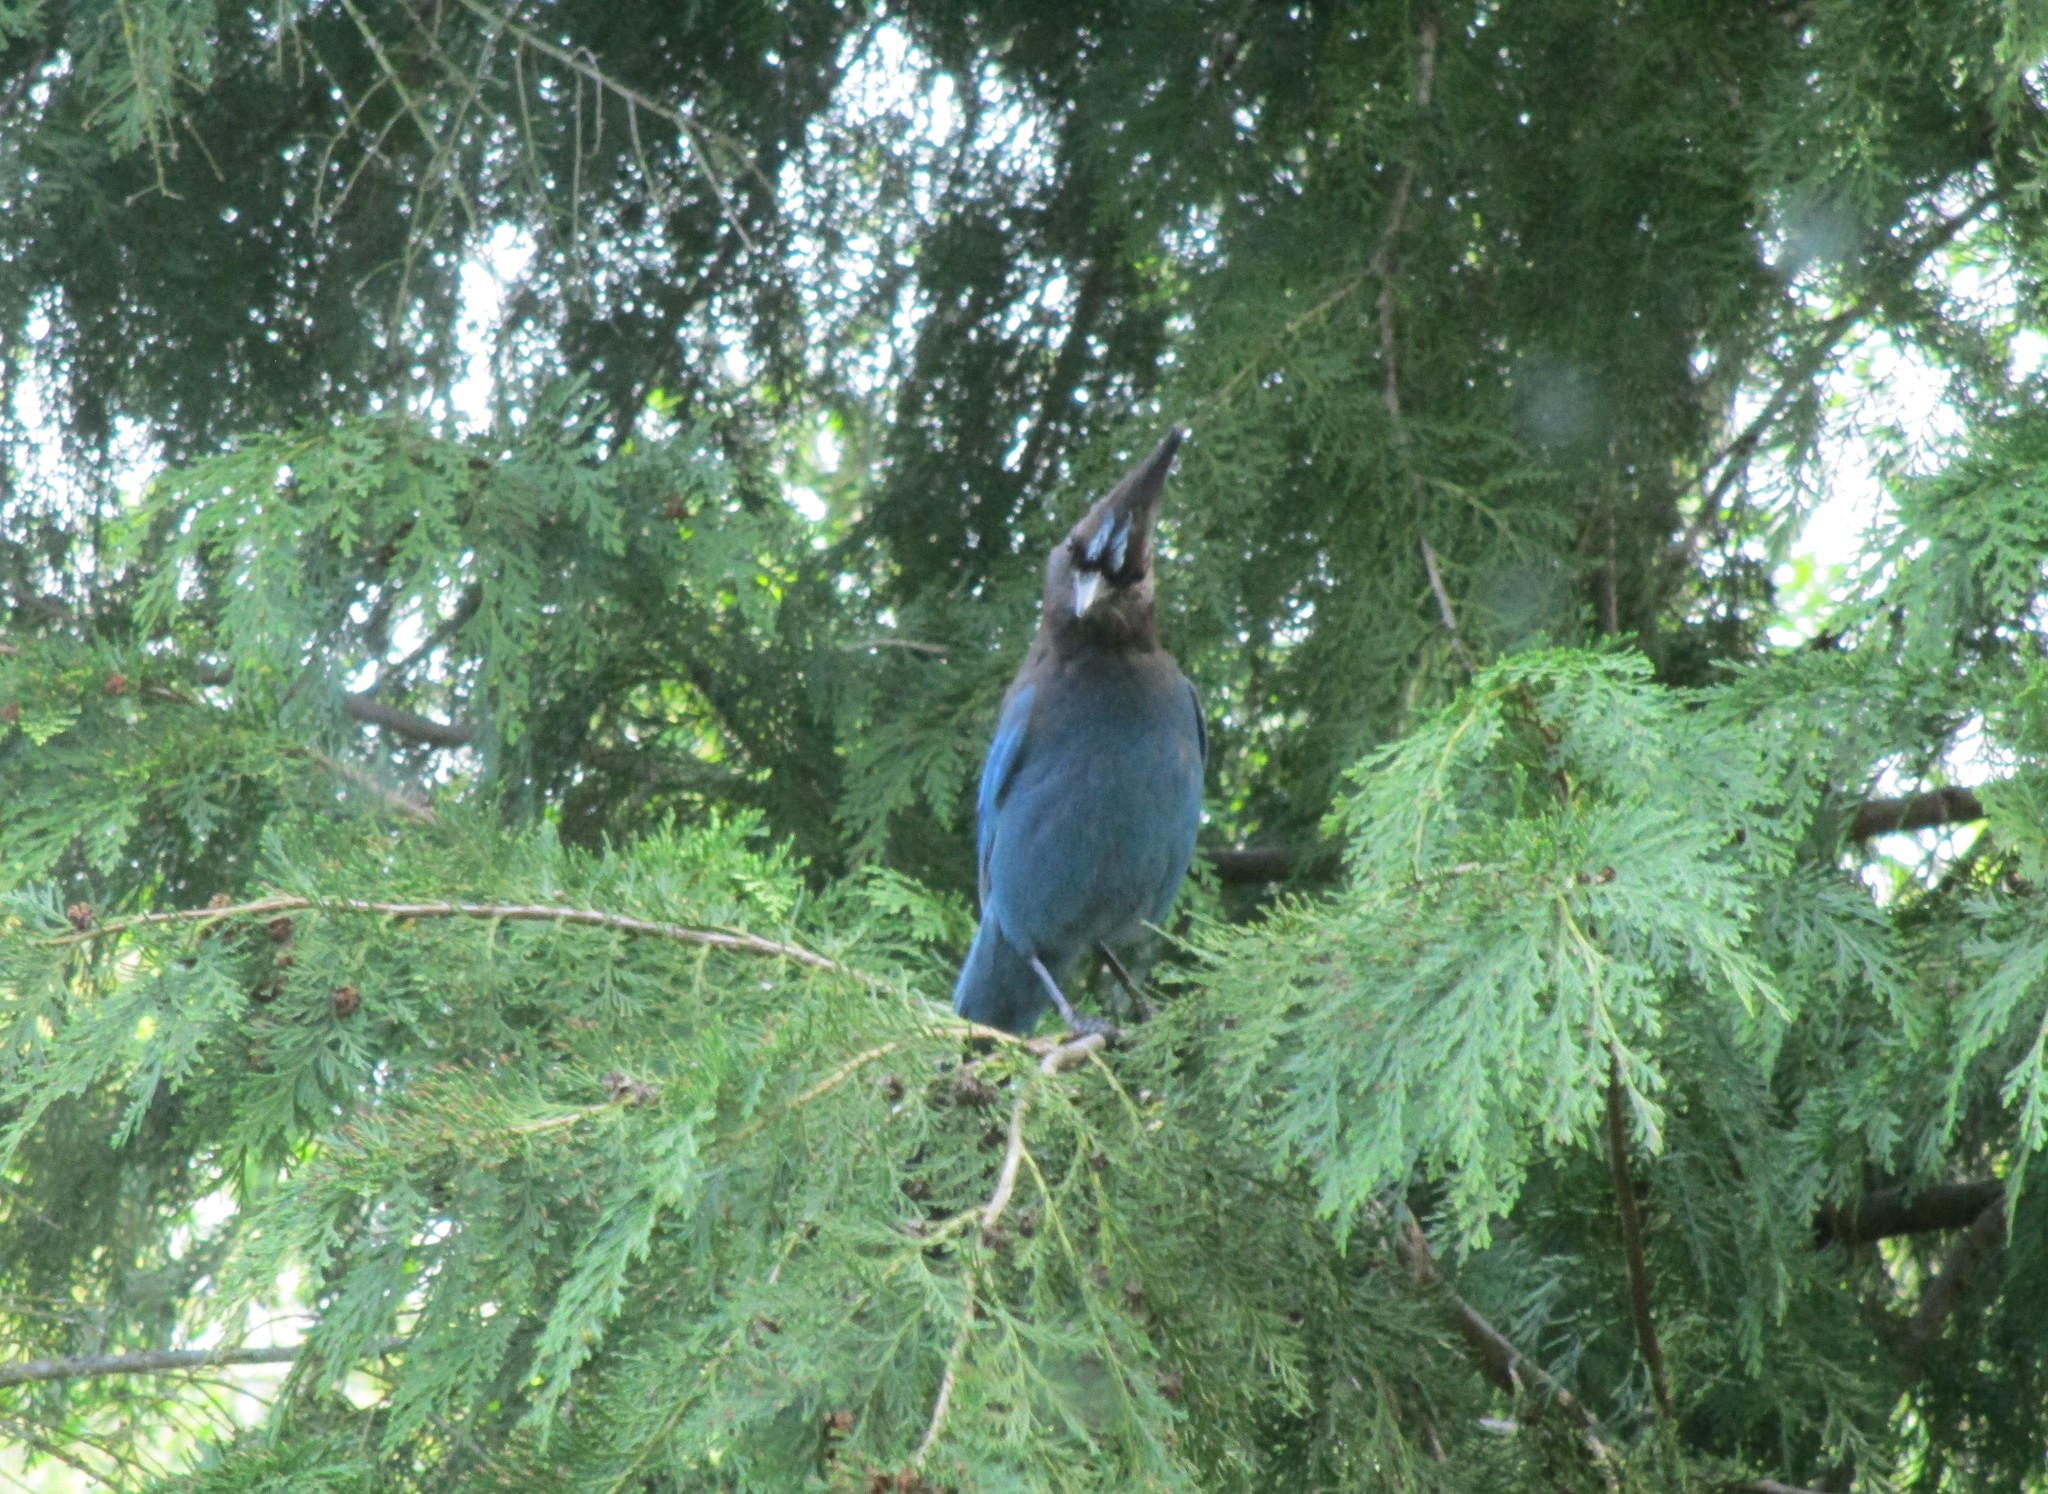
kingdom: Animalia
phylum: Chordata
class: Aves
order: Passeriformes
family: Corvidae
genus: Cyanocitta
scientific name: Cyanocitta stelleri
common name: Steller's jay
